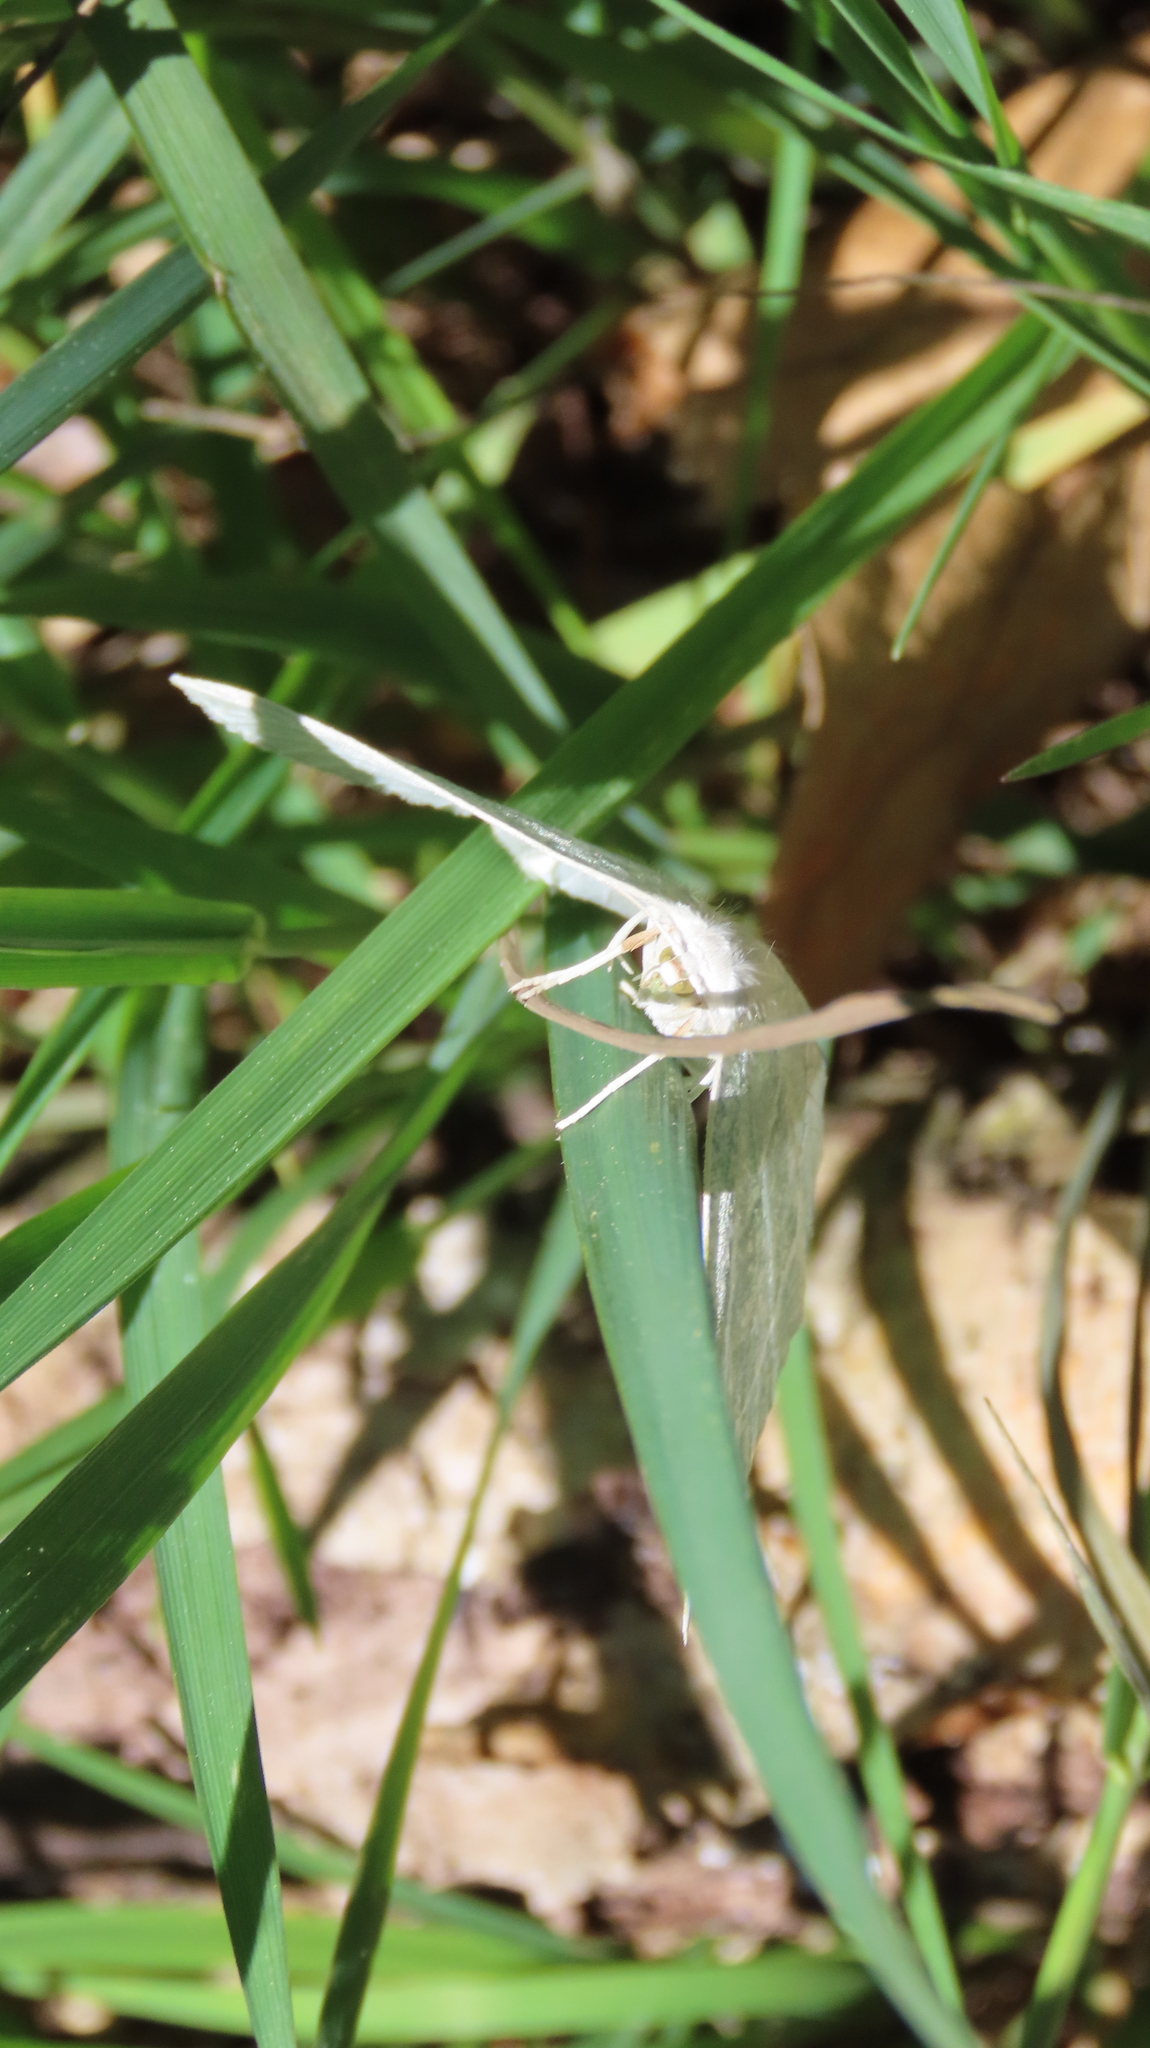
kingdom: Animalia
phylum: Arthropoda
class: Insecta
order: Lepidoptera
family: Geometridae
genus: Campaea
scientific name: Campaea perlata
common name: Fringed looper
